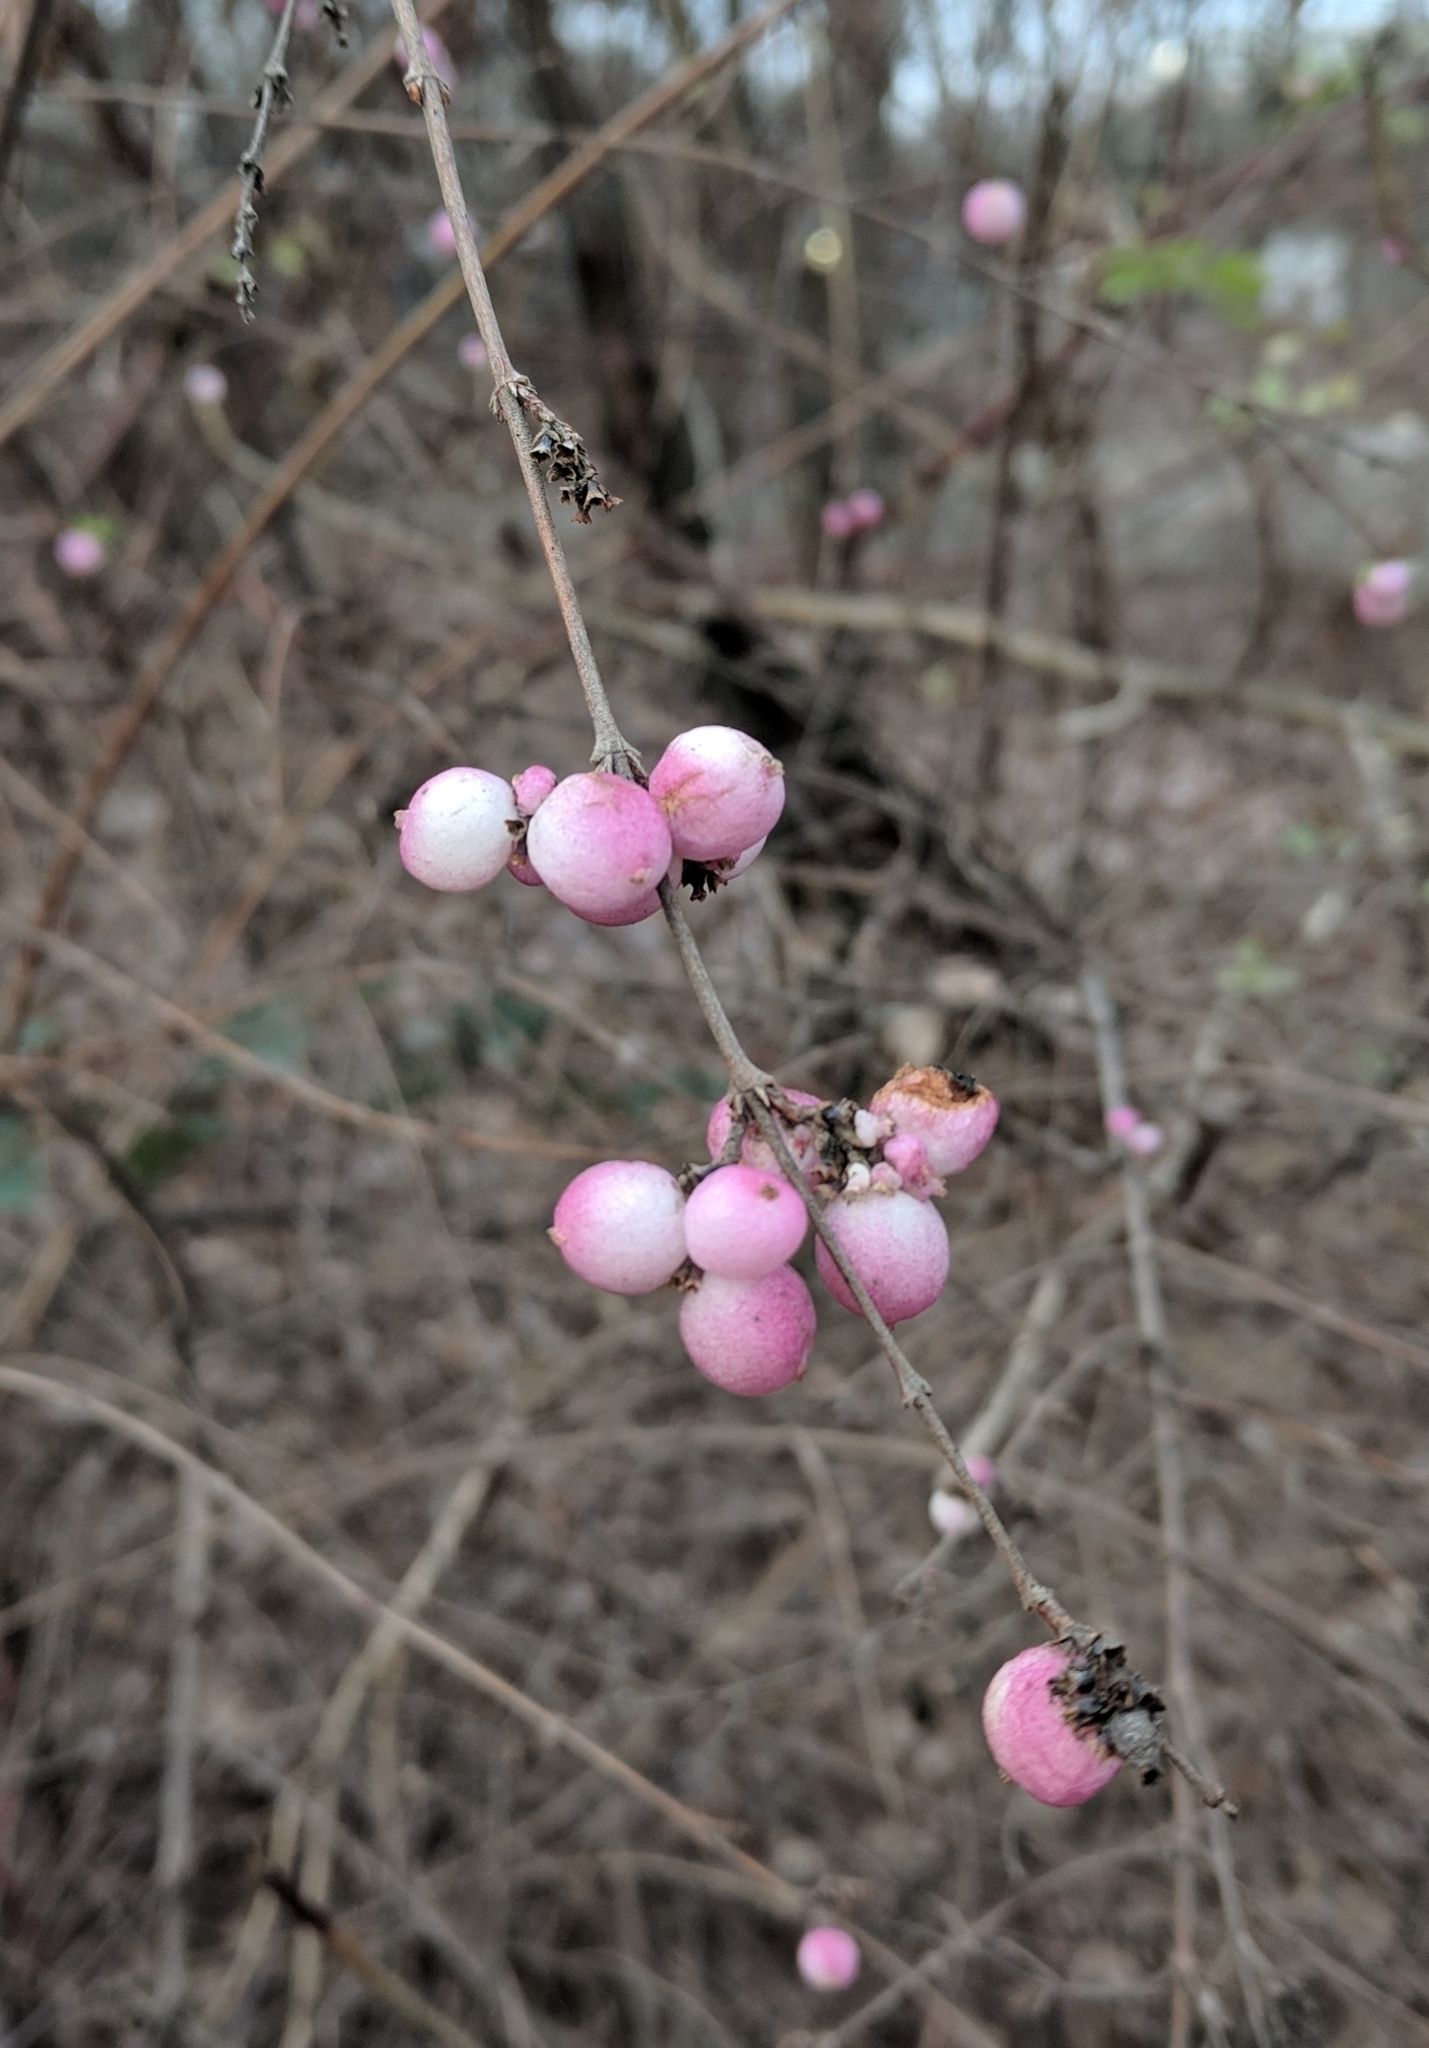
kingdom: Plantae
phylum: Tracheophyta
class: Magnoliopsida
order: Dipsacales
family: Caprifoliaceae
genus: Symphoricarpos
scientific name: Symphoricarpos albus
